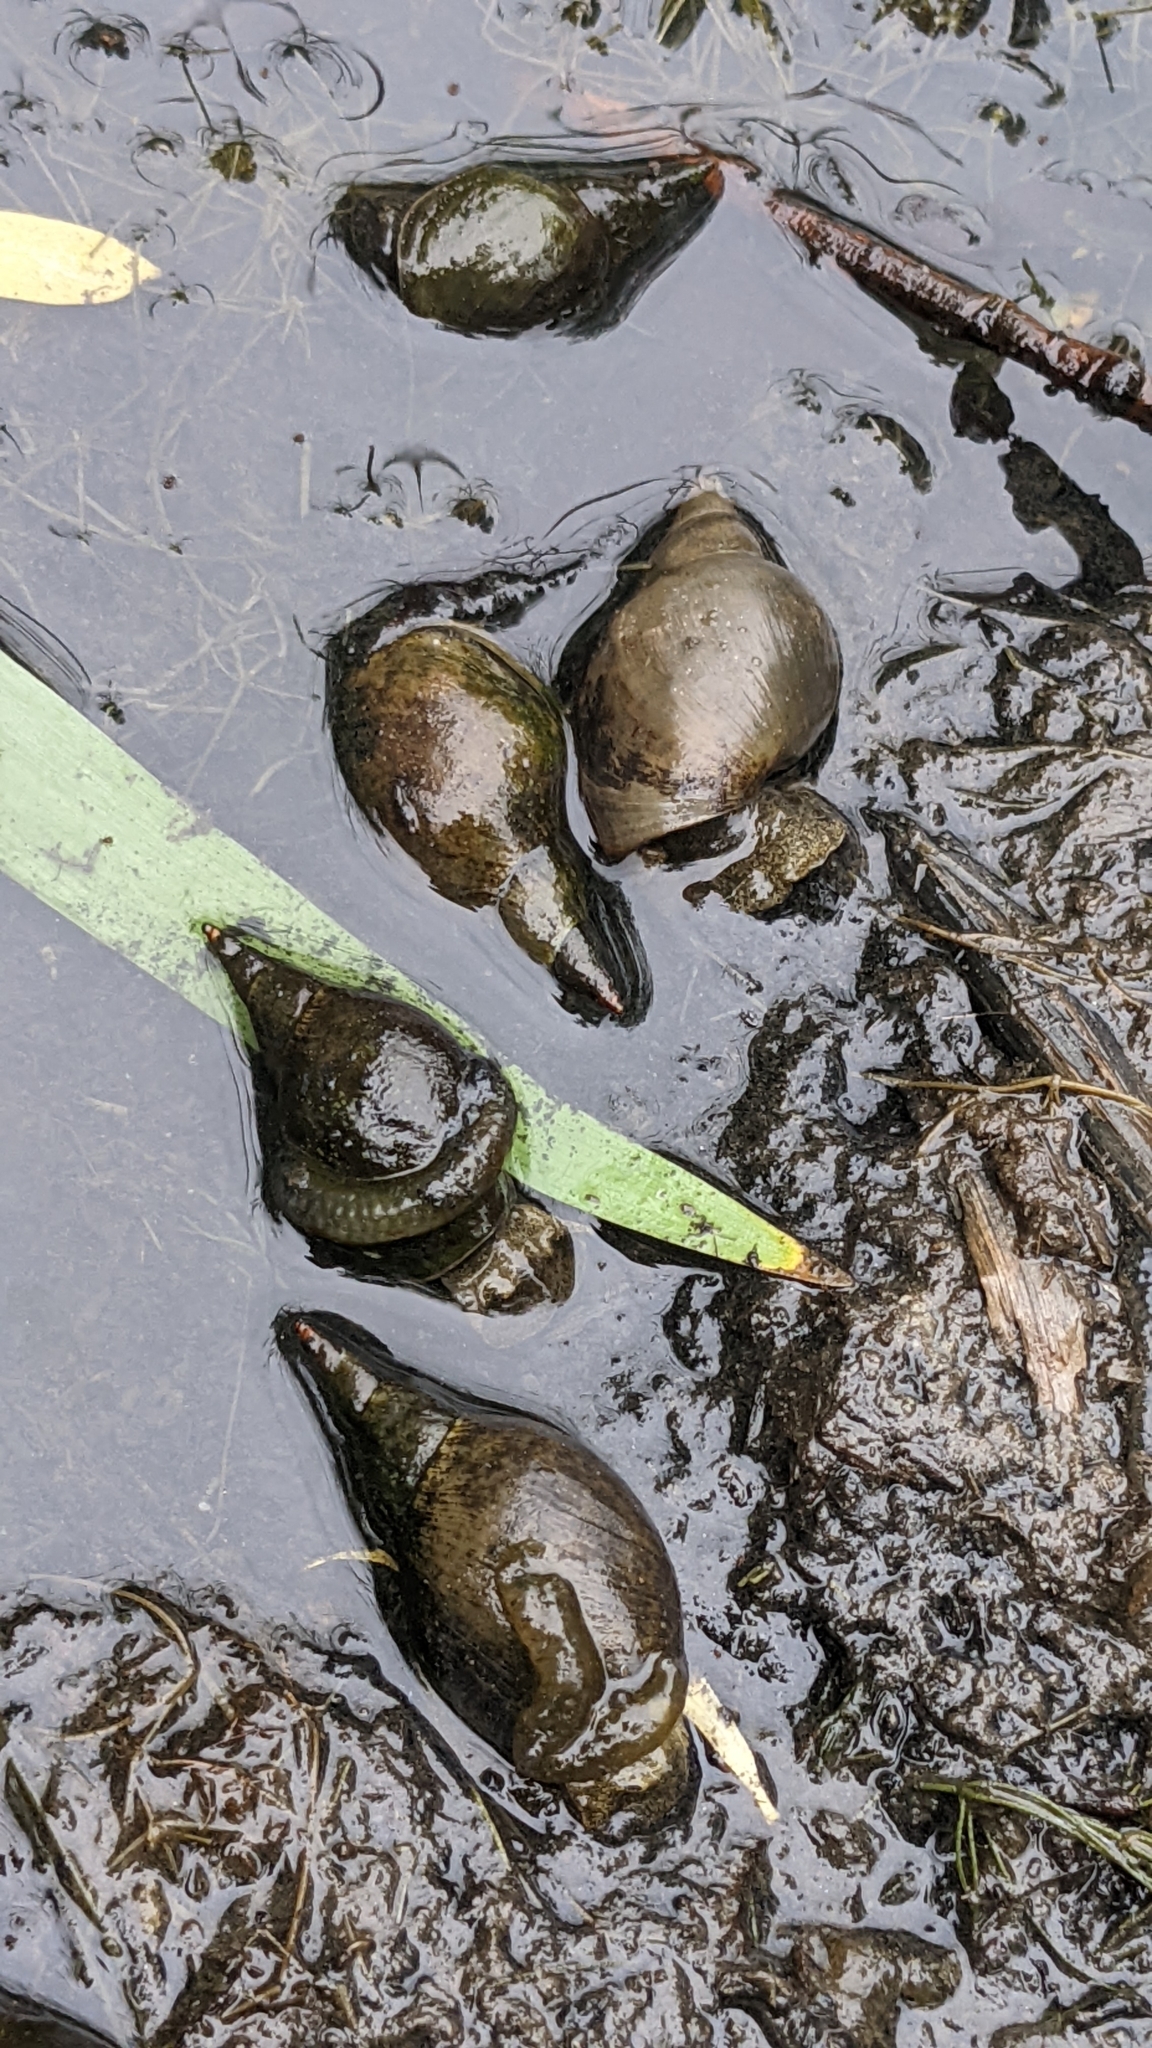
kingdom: Animalia
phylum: Mollusca
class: Gastropoda
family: Lymnaeidae
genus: Lymnaea
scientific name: Lymnaea stagnalis
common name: Great pond snail
